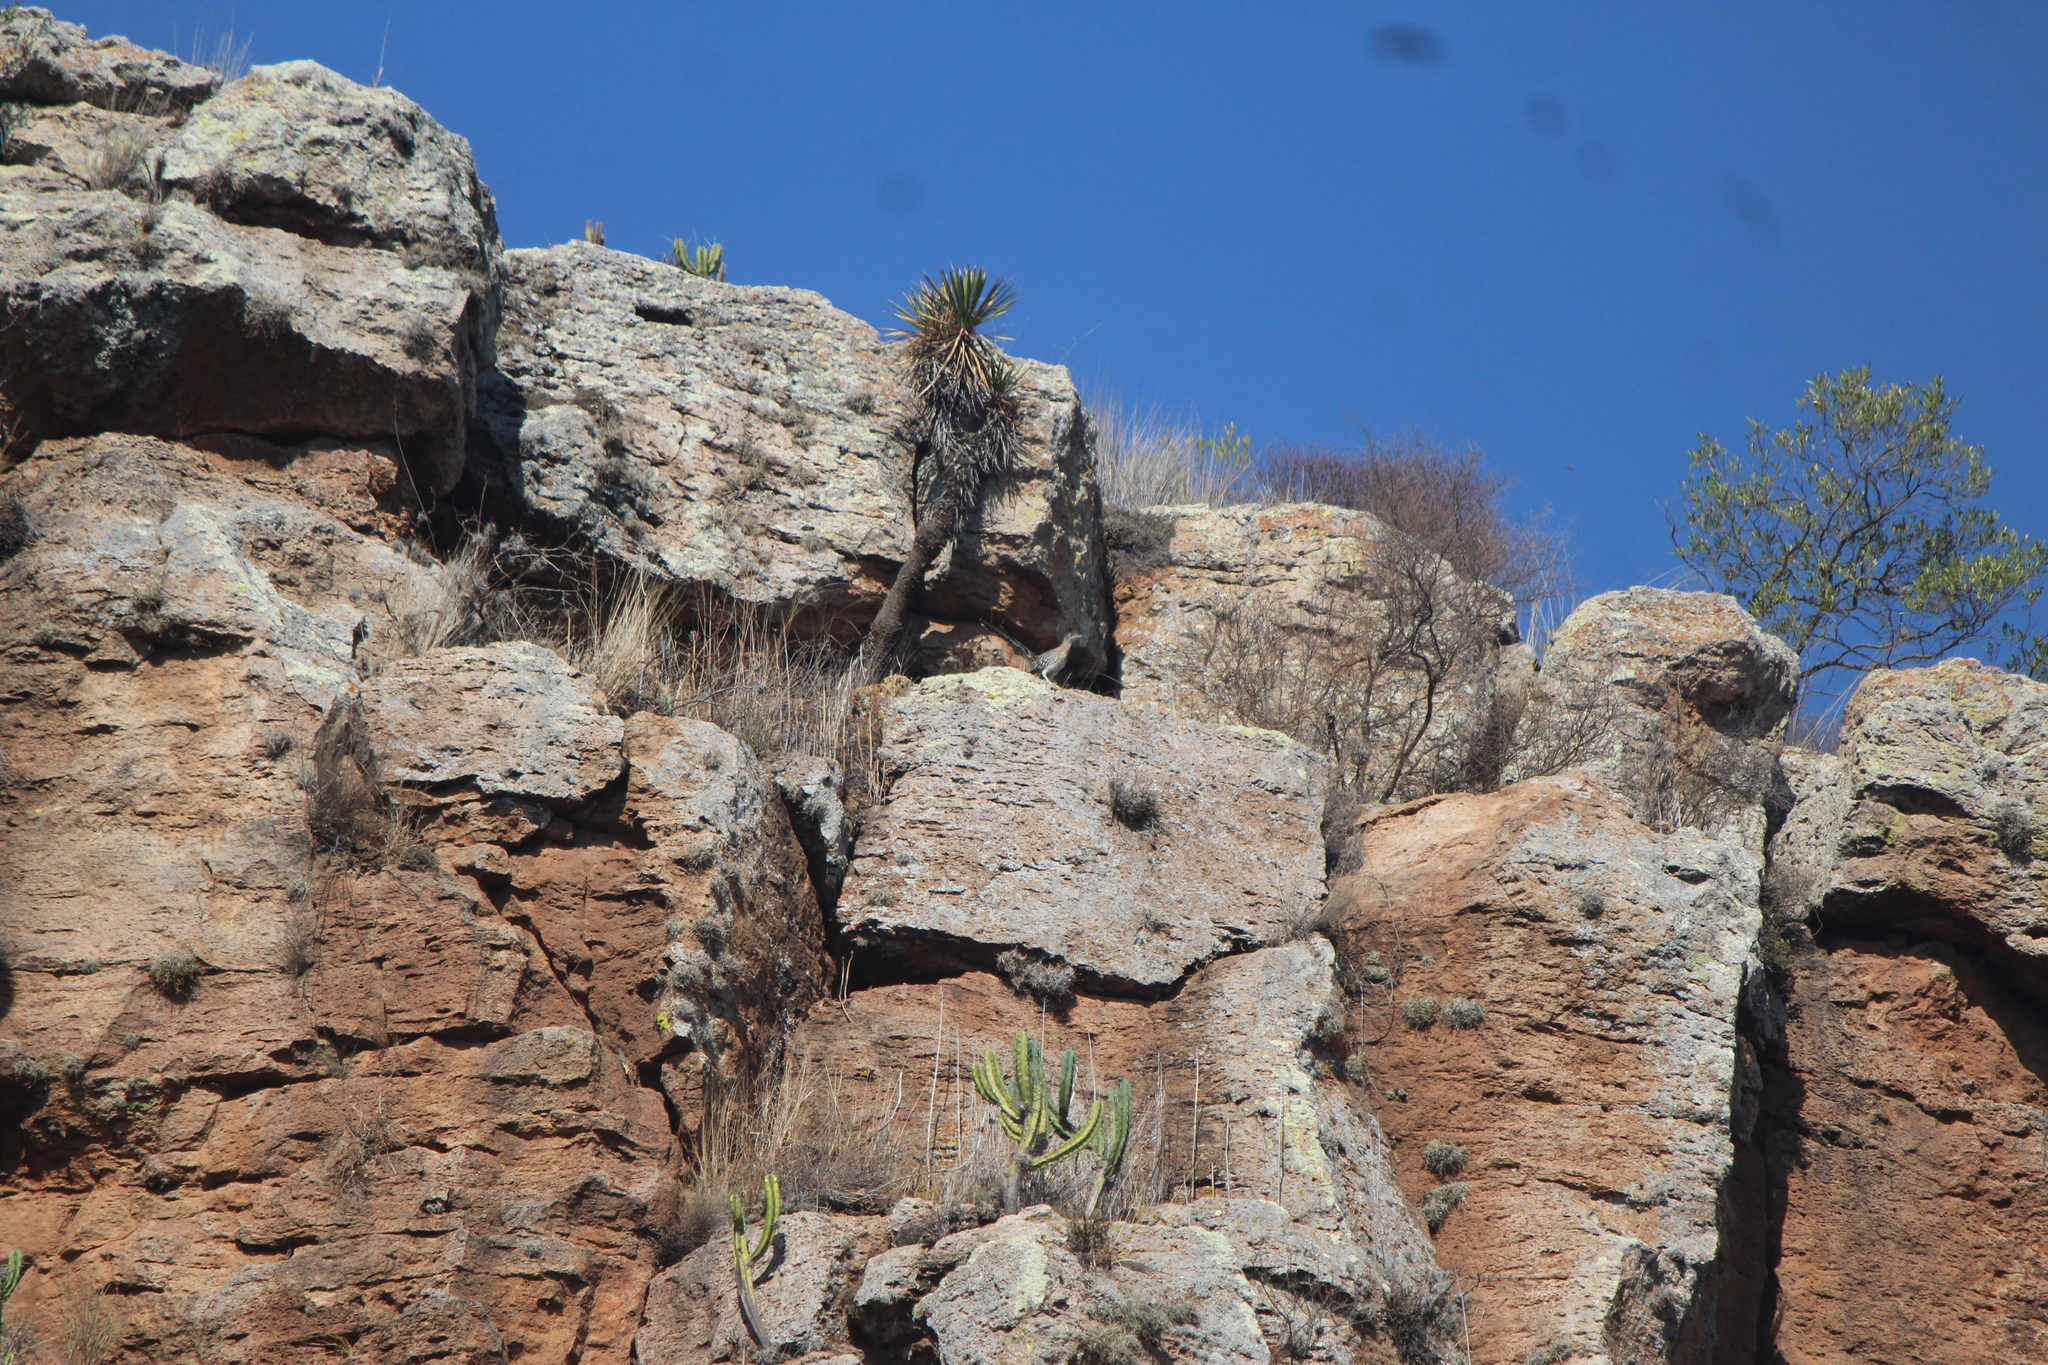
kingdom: Animalia
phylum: Chordata
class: Aves
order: Cuculiformes
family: Cuculidae
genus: Geococcyx
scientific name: Geococcyx californianus
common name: Greater roadrunner
